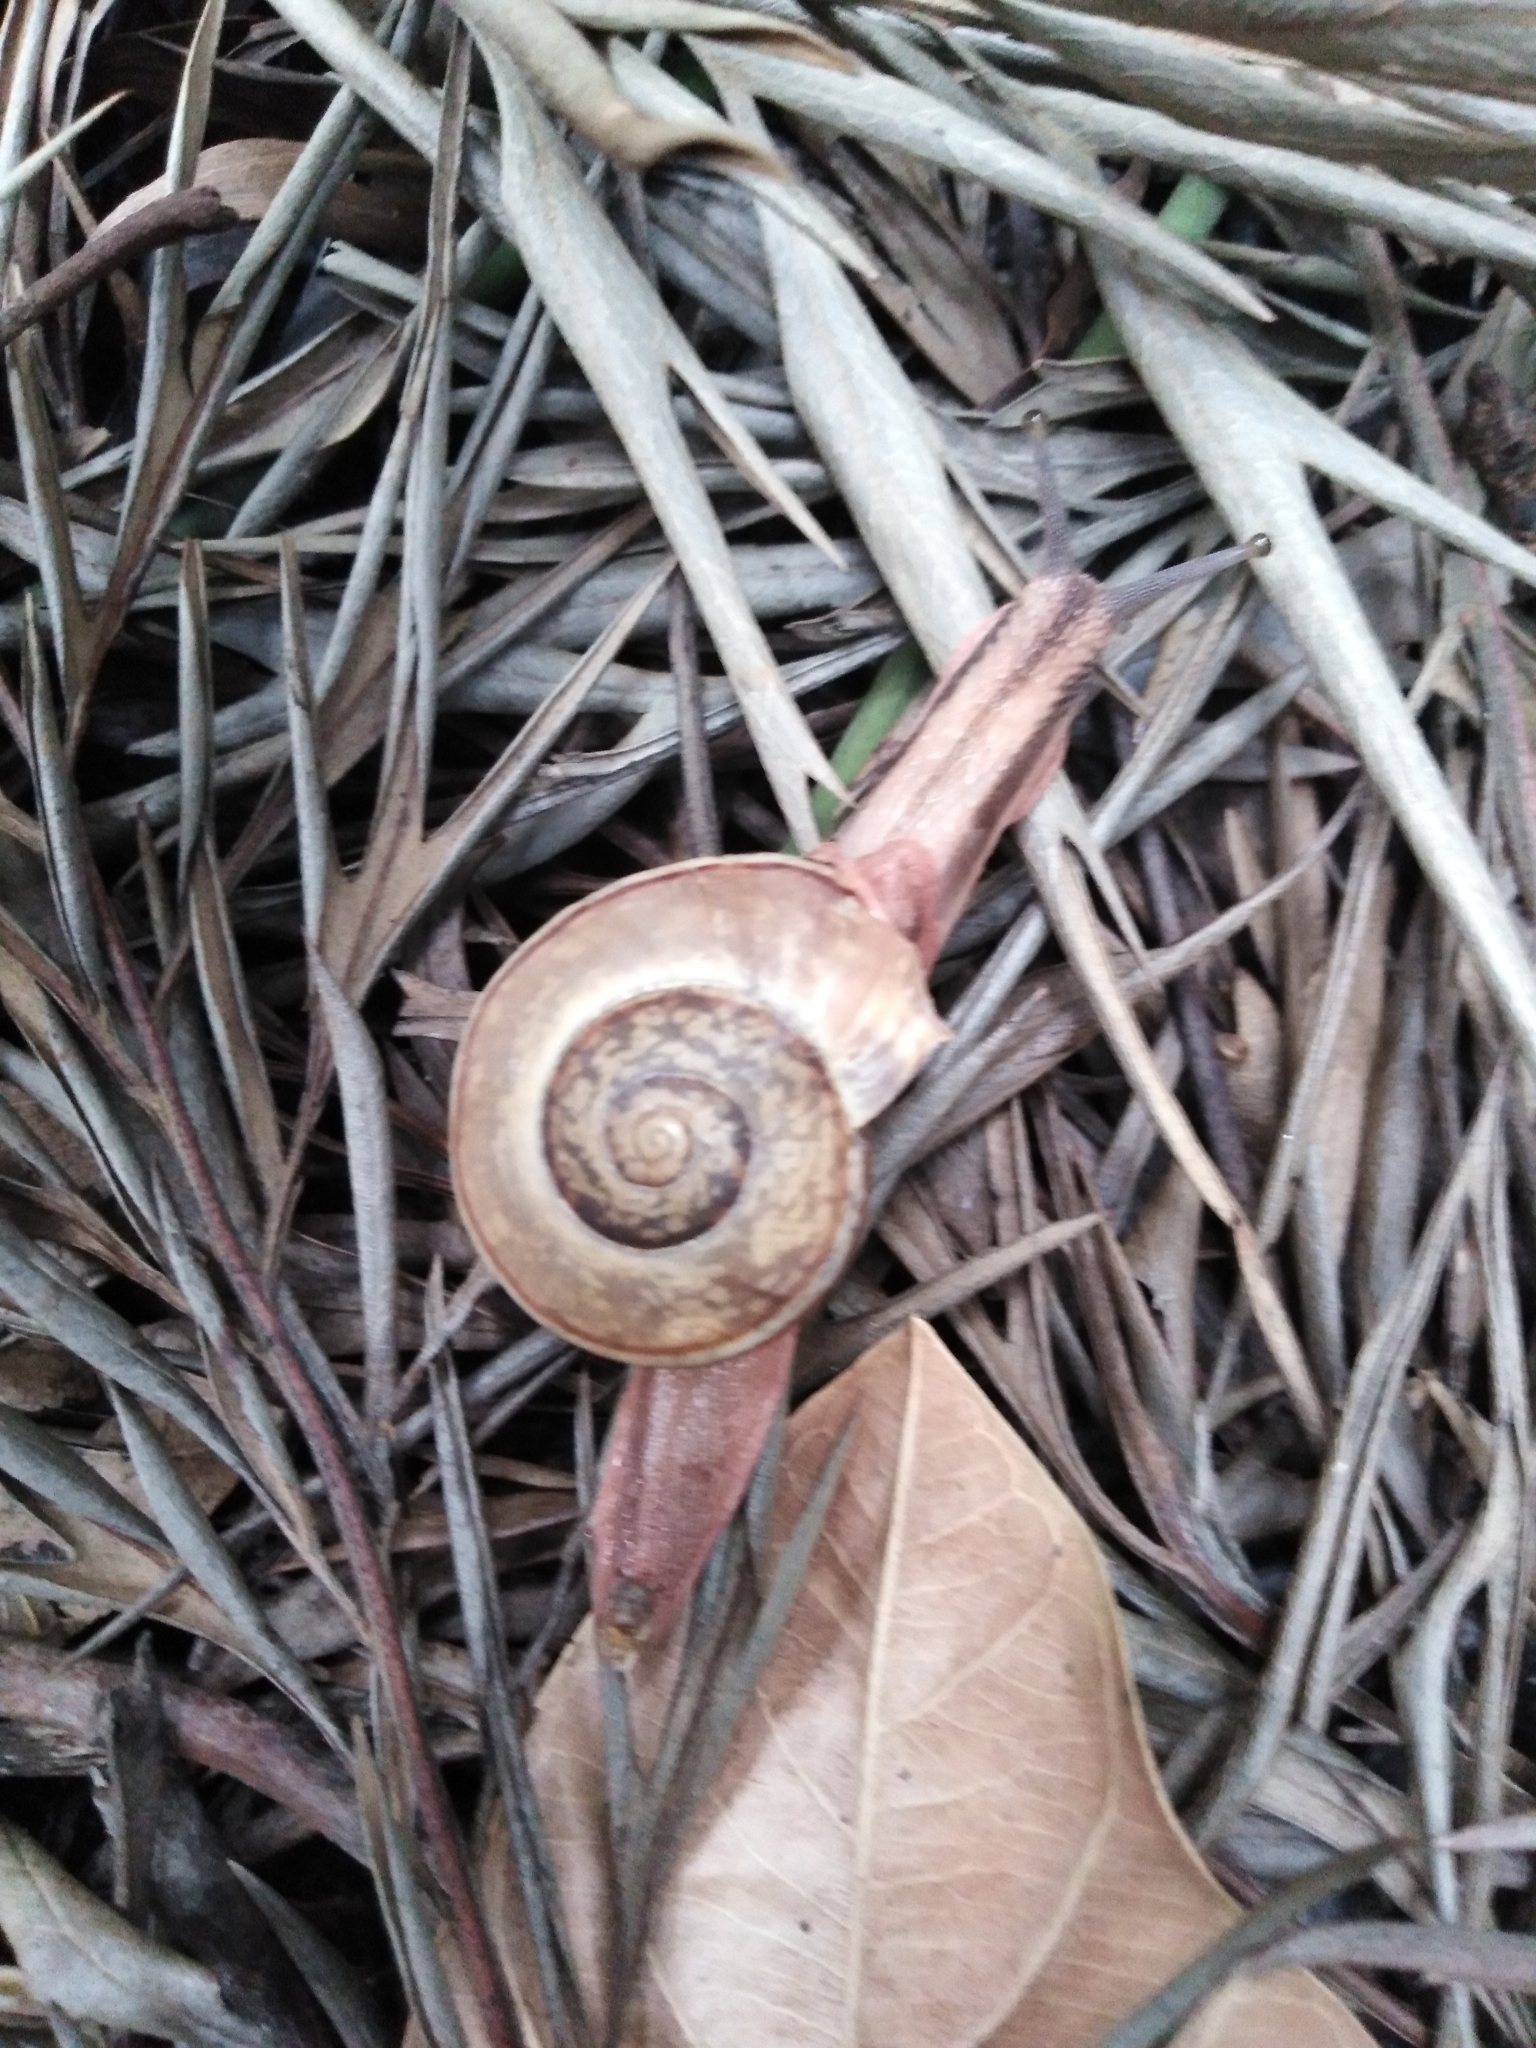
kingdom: Animalia
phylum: Mollusca
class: Gastropoda
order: Stylommatophora
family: Ariophantidae
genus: Ariophanta
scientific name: Ariophanta exilis
